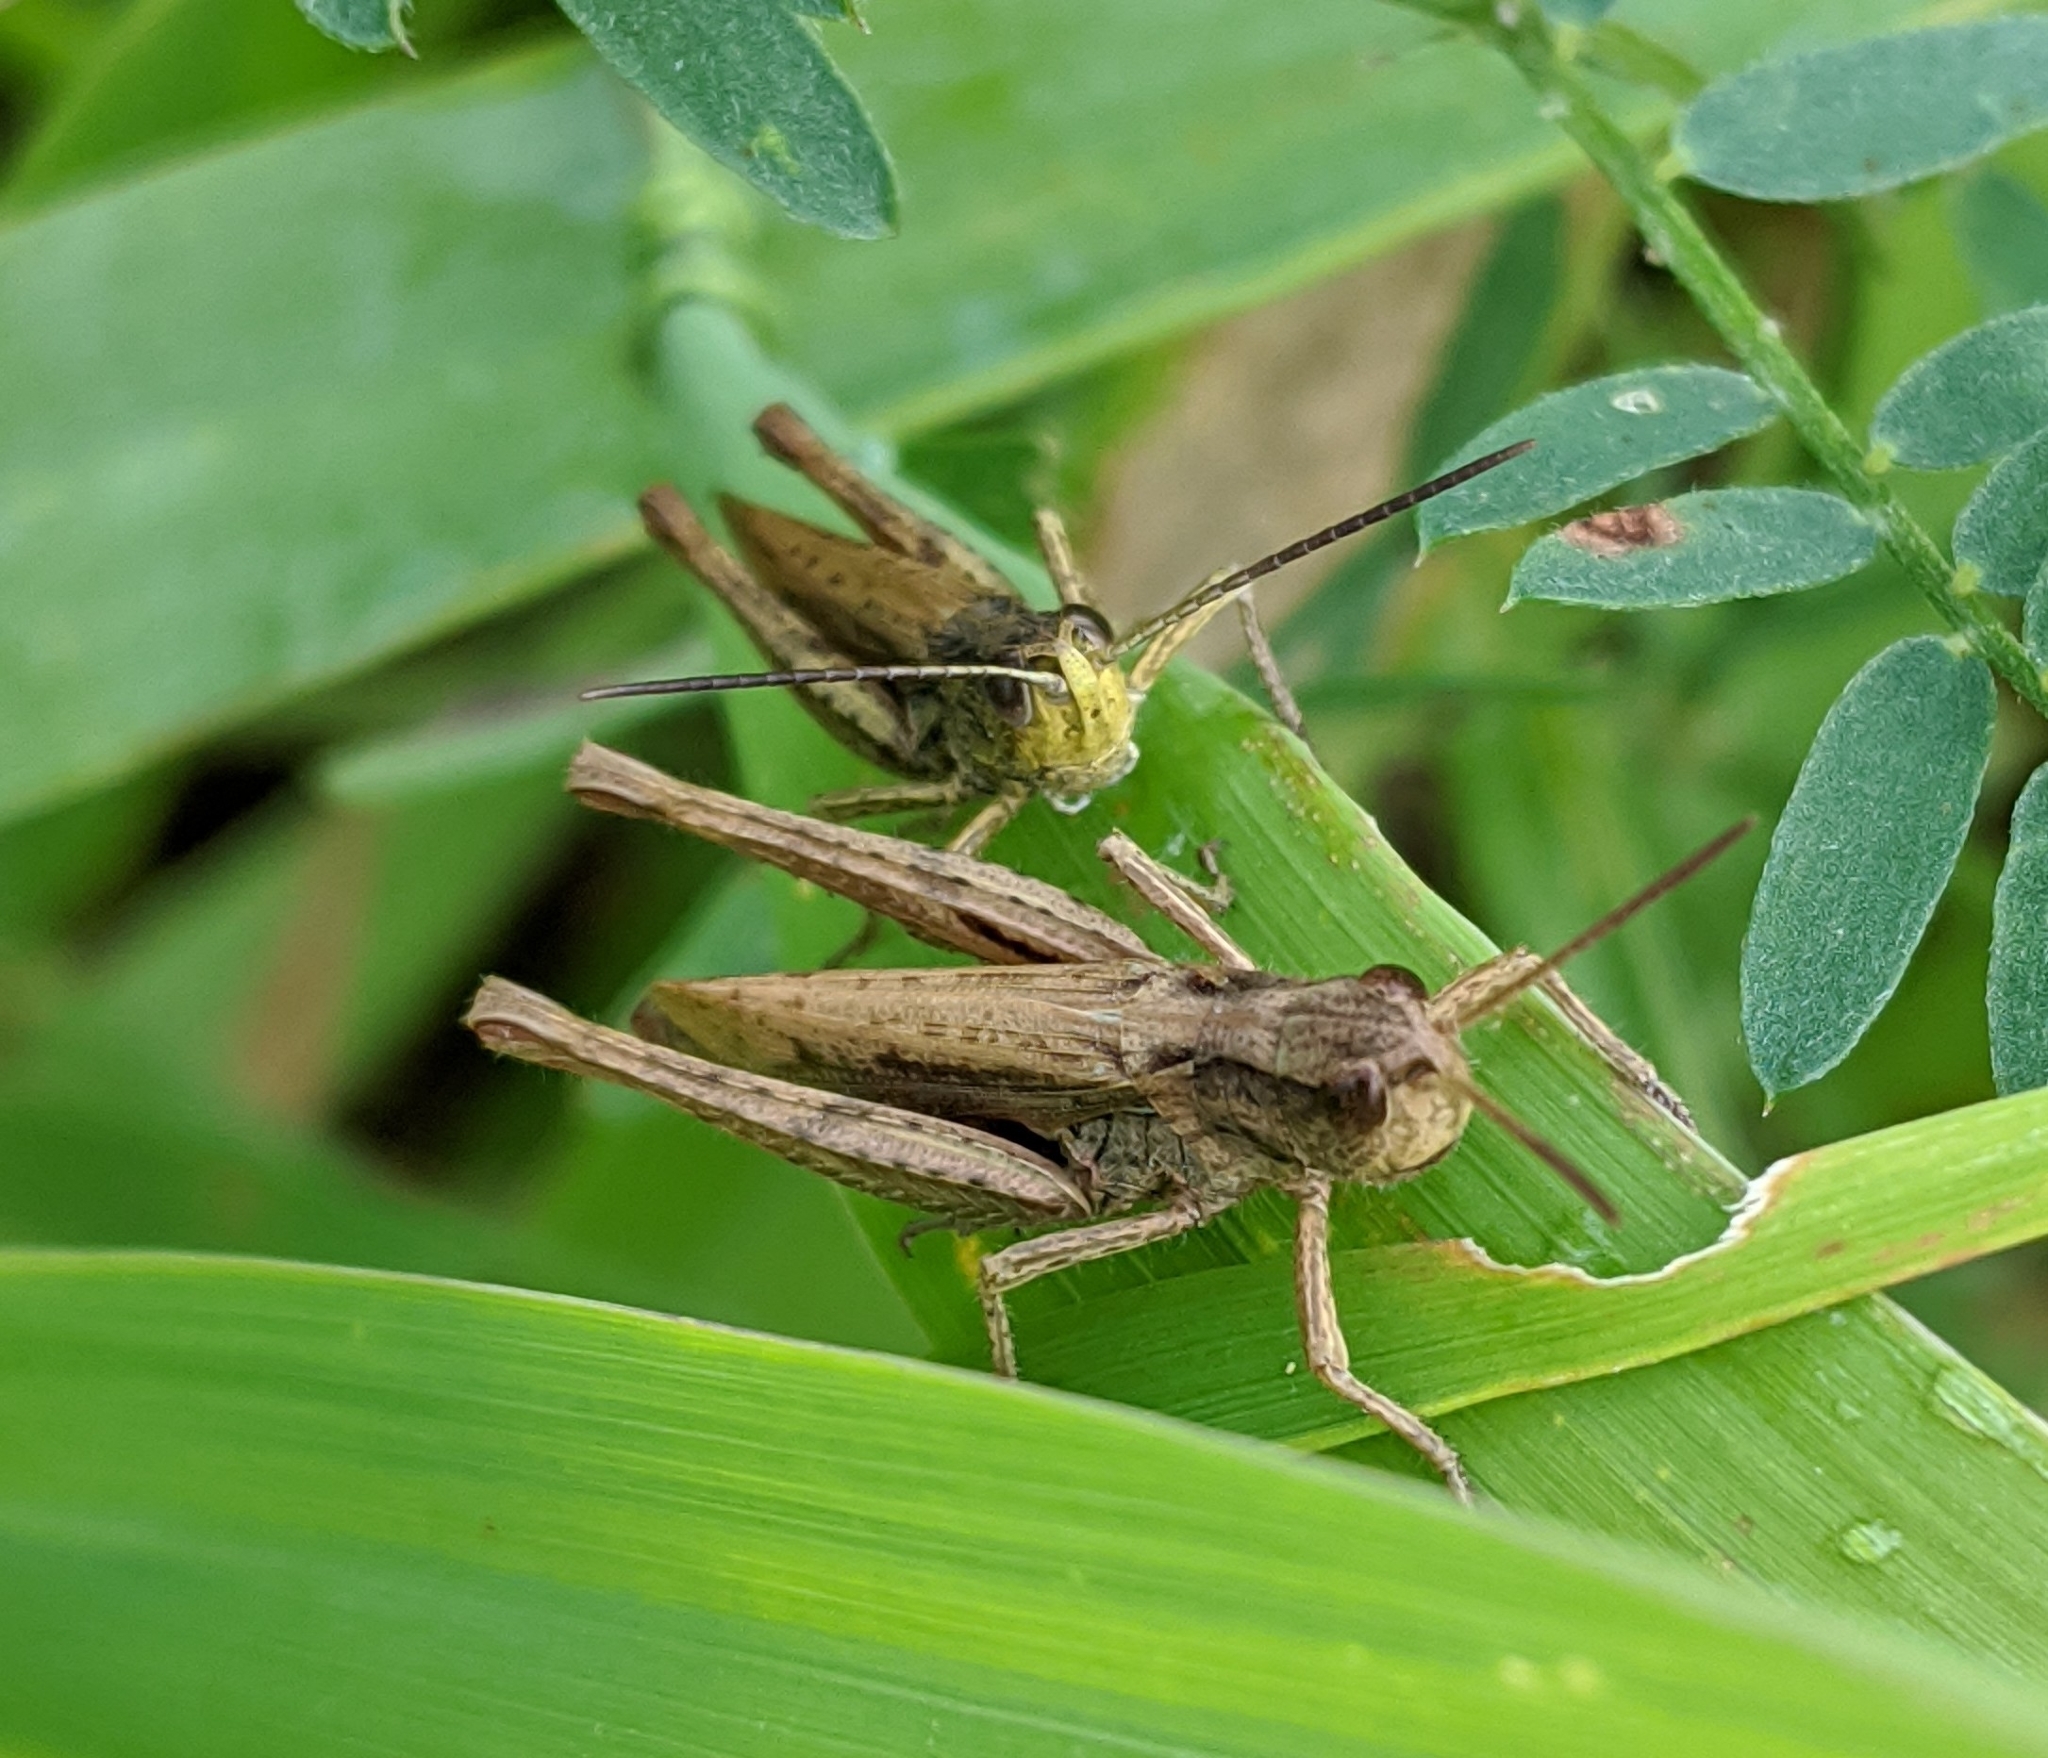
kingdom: Animalia
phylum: Arthropoda
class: Insecta
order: Orthoptera
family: Acrididae
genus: Chorthippus
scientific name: Chorthippus apricarius
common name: Upland field grasshopper
